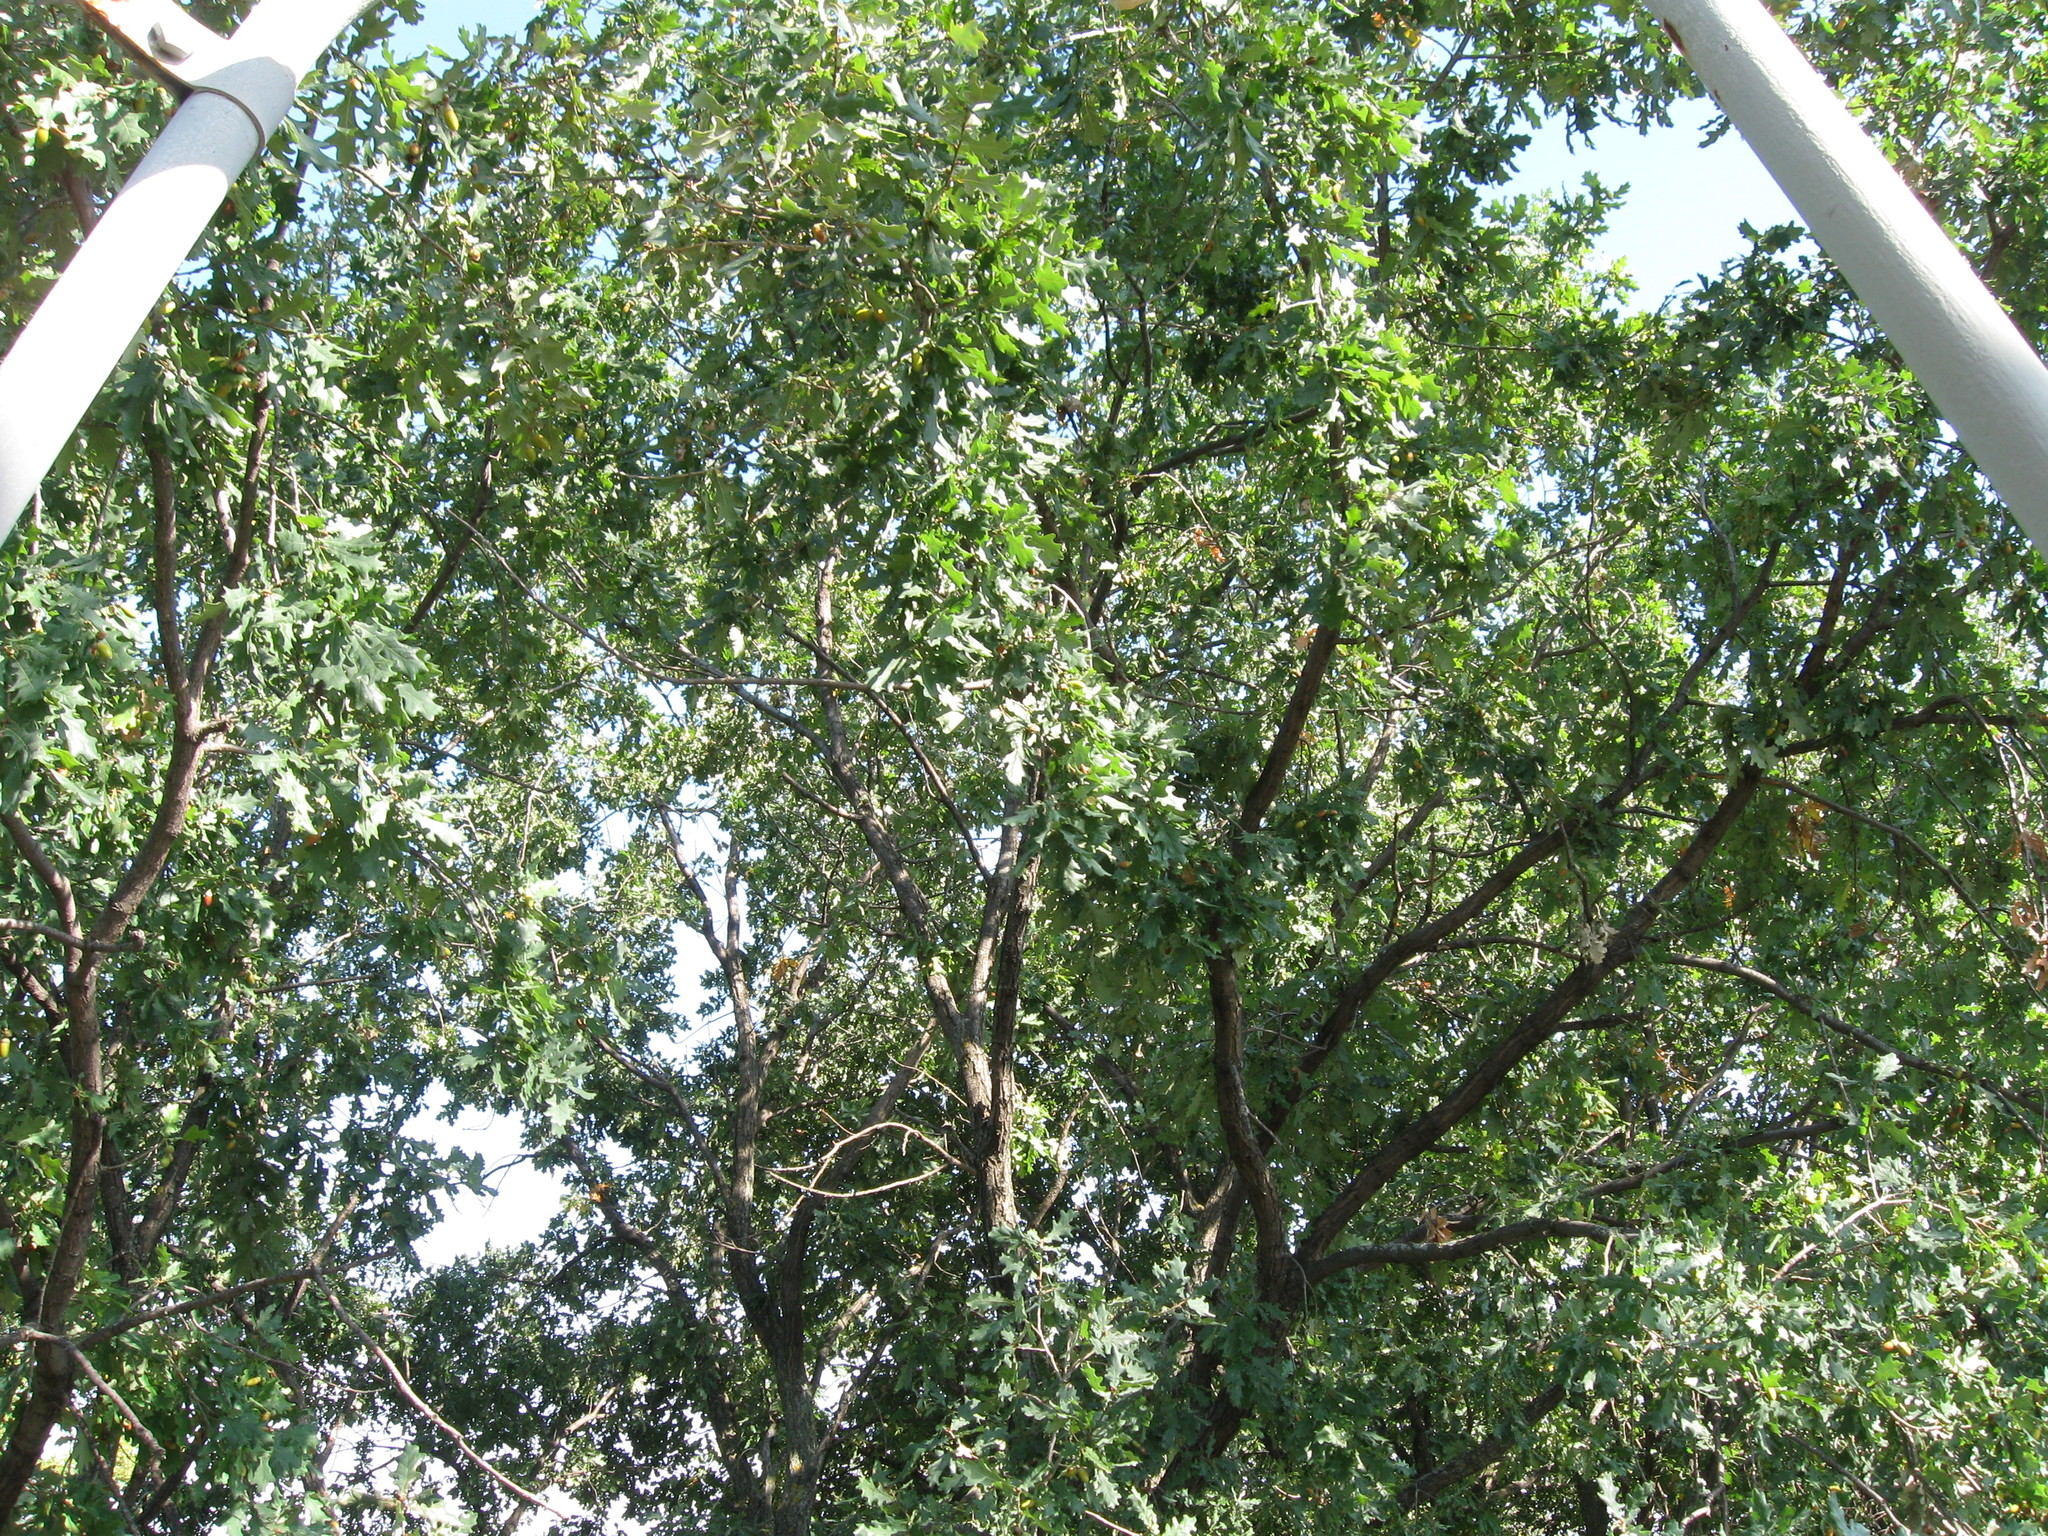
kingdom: Plantae
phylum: Tracheophyta
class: Magnoliopsida
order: Fagales
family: Fagaceae
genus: Quercus
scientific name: Quercus robur
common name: Pedunculate oak
